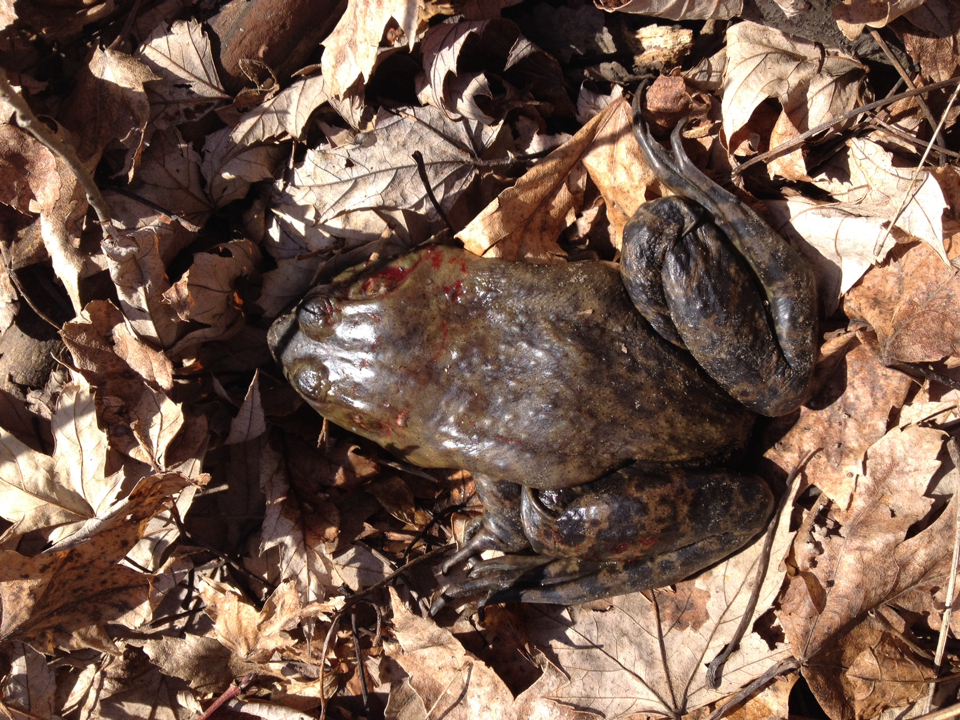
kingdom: Animalia
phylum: Chordata
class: Amphibia
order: Anura
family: Ranidae
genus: Lithobates
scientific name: Lithobates catesbeianus
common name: American bullfrog
